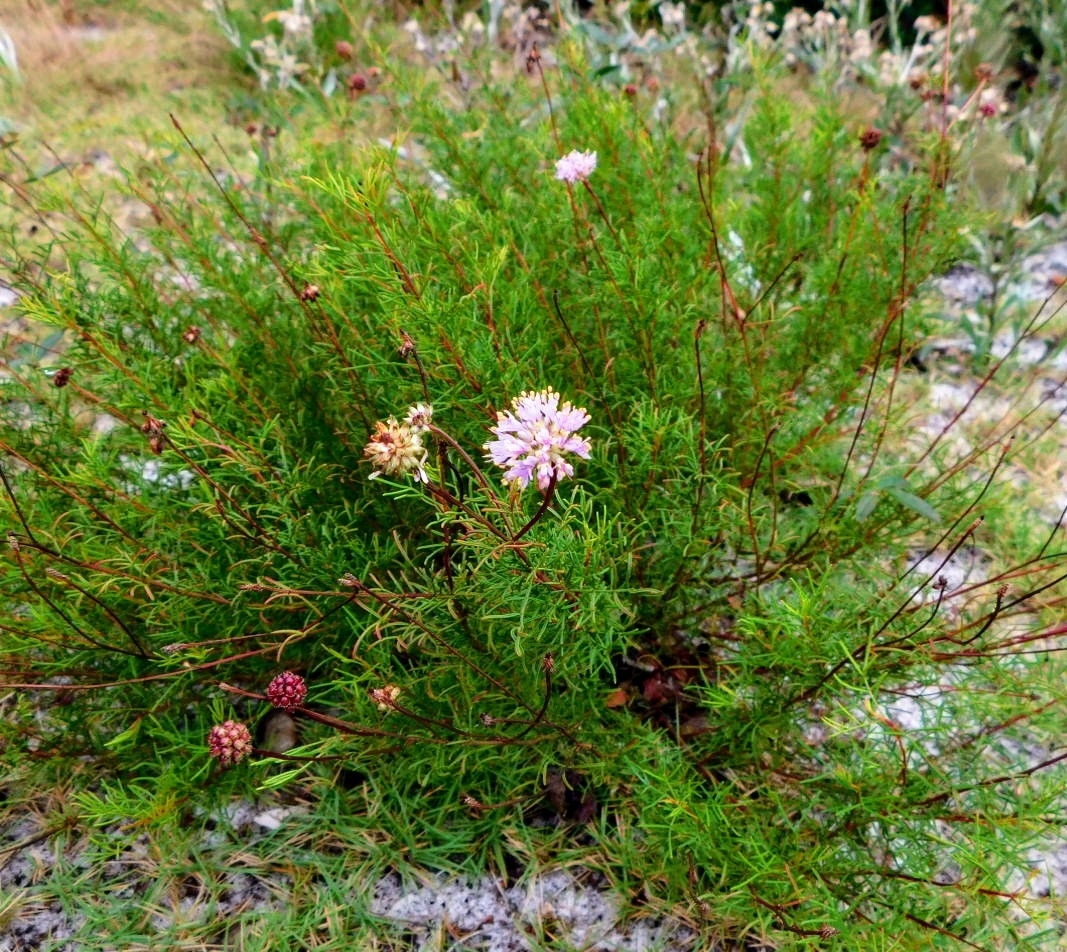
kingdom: Plantae
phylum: Tracheophyta
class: Magnoliopsida
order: Fabales
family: Fabaceae
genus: Dalea
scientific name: Dalea feayi
